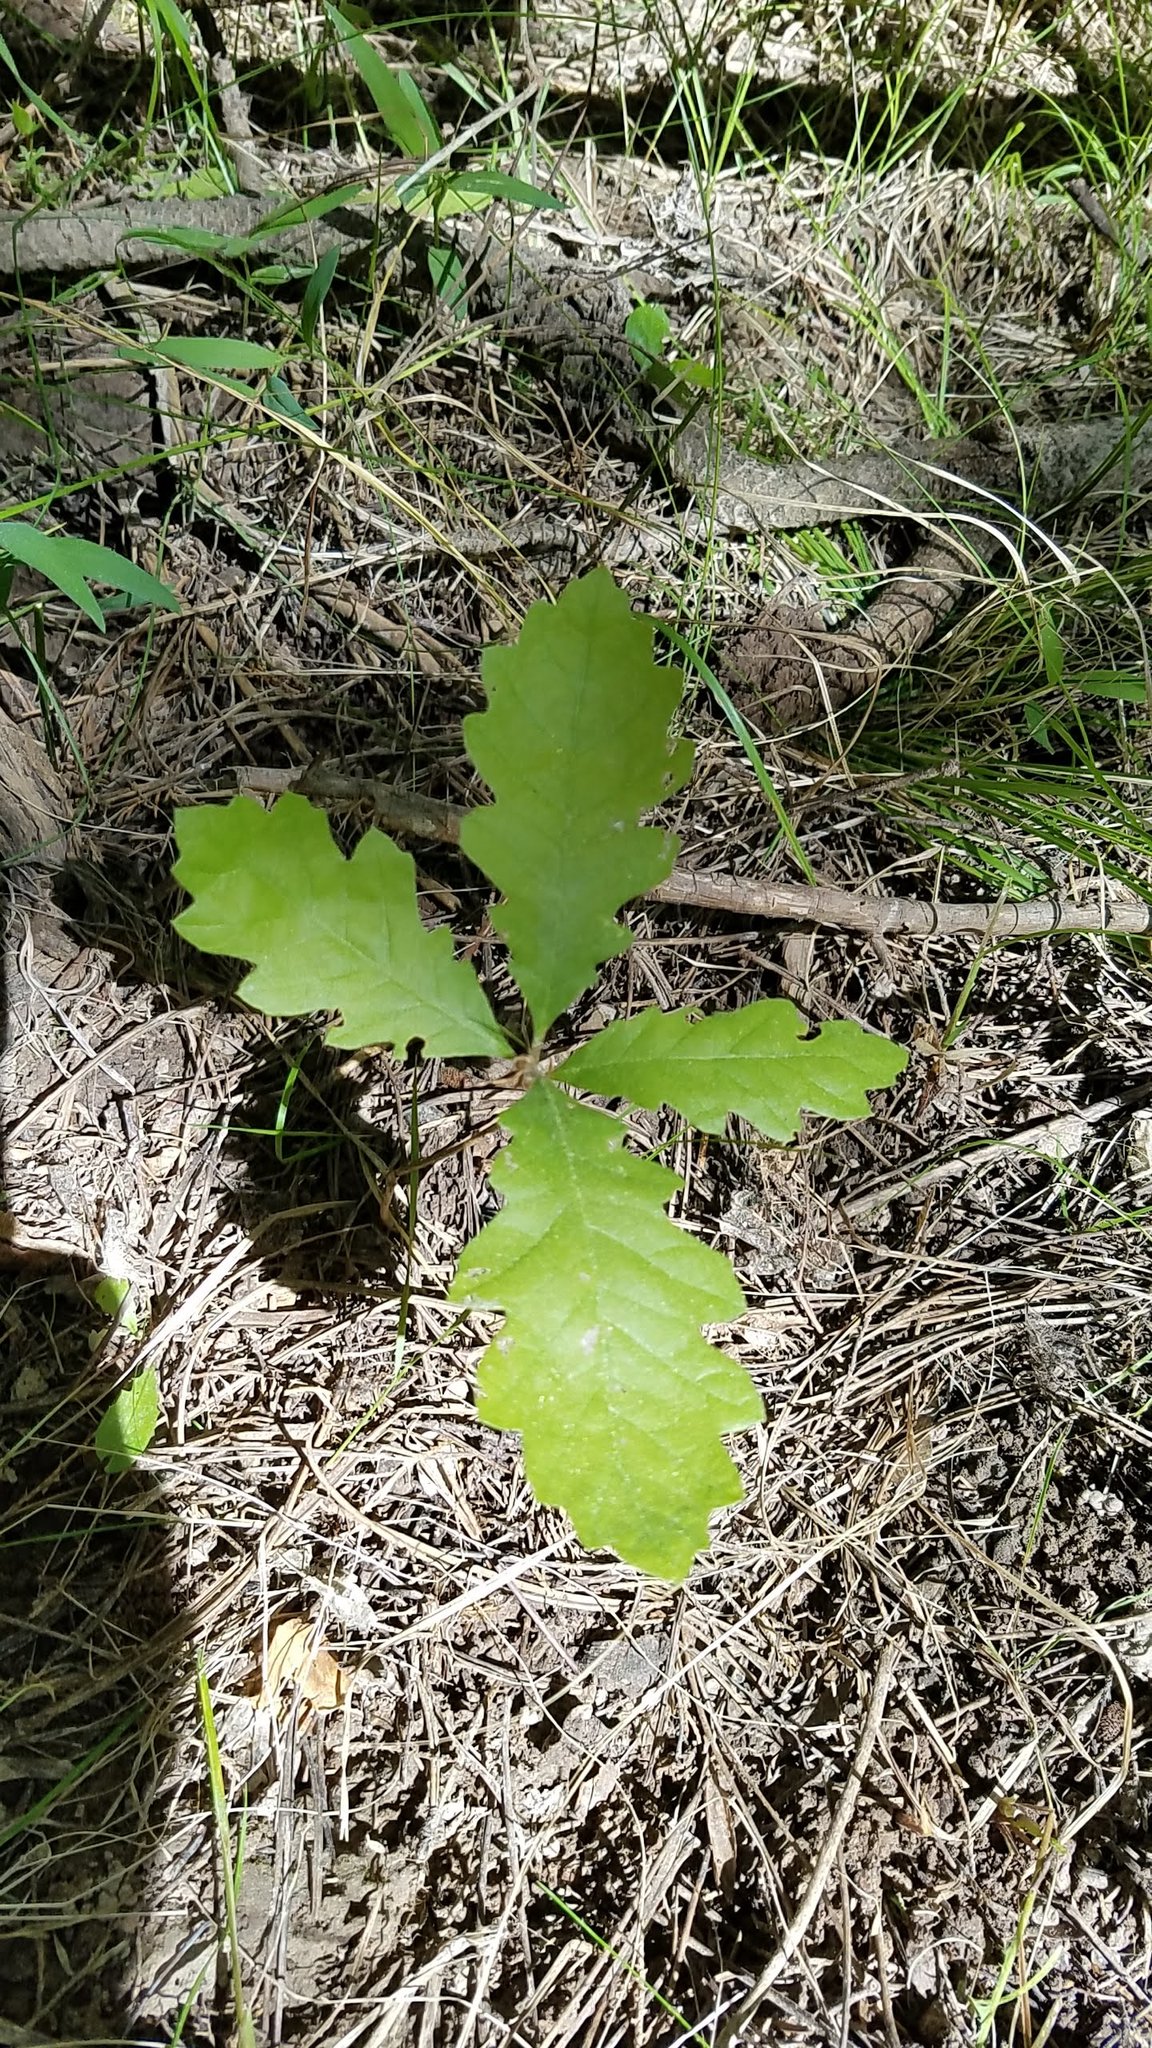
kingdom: Plantae
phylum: Tracheophyta
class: Magnoliopsida
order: Fagales
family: Fagaceae
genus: Quercus
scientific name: Quercus macrocarpa
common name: Bur oak
